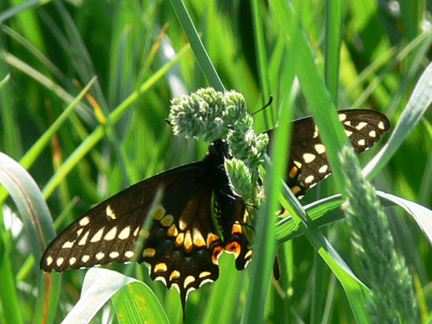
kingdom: Animalia
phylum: Arthropoda
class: Insecta
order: Lepidoptera
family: Papilionidae
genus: Papilio
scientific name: Papilio polyxenes
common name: Black swallowtail
